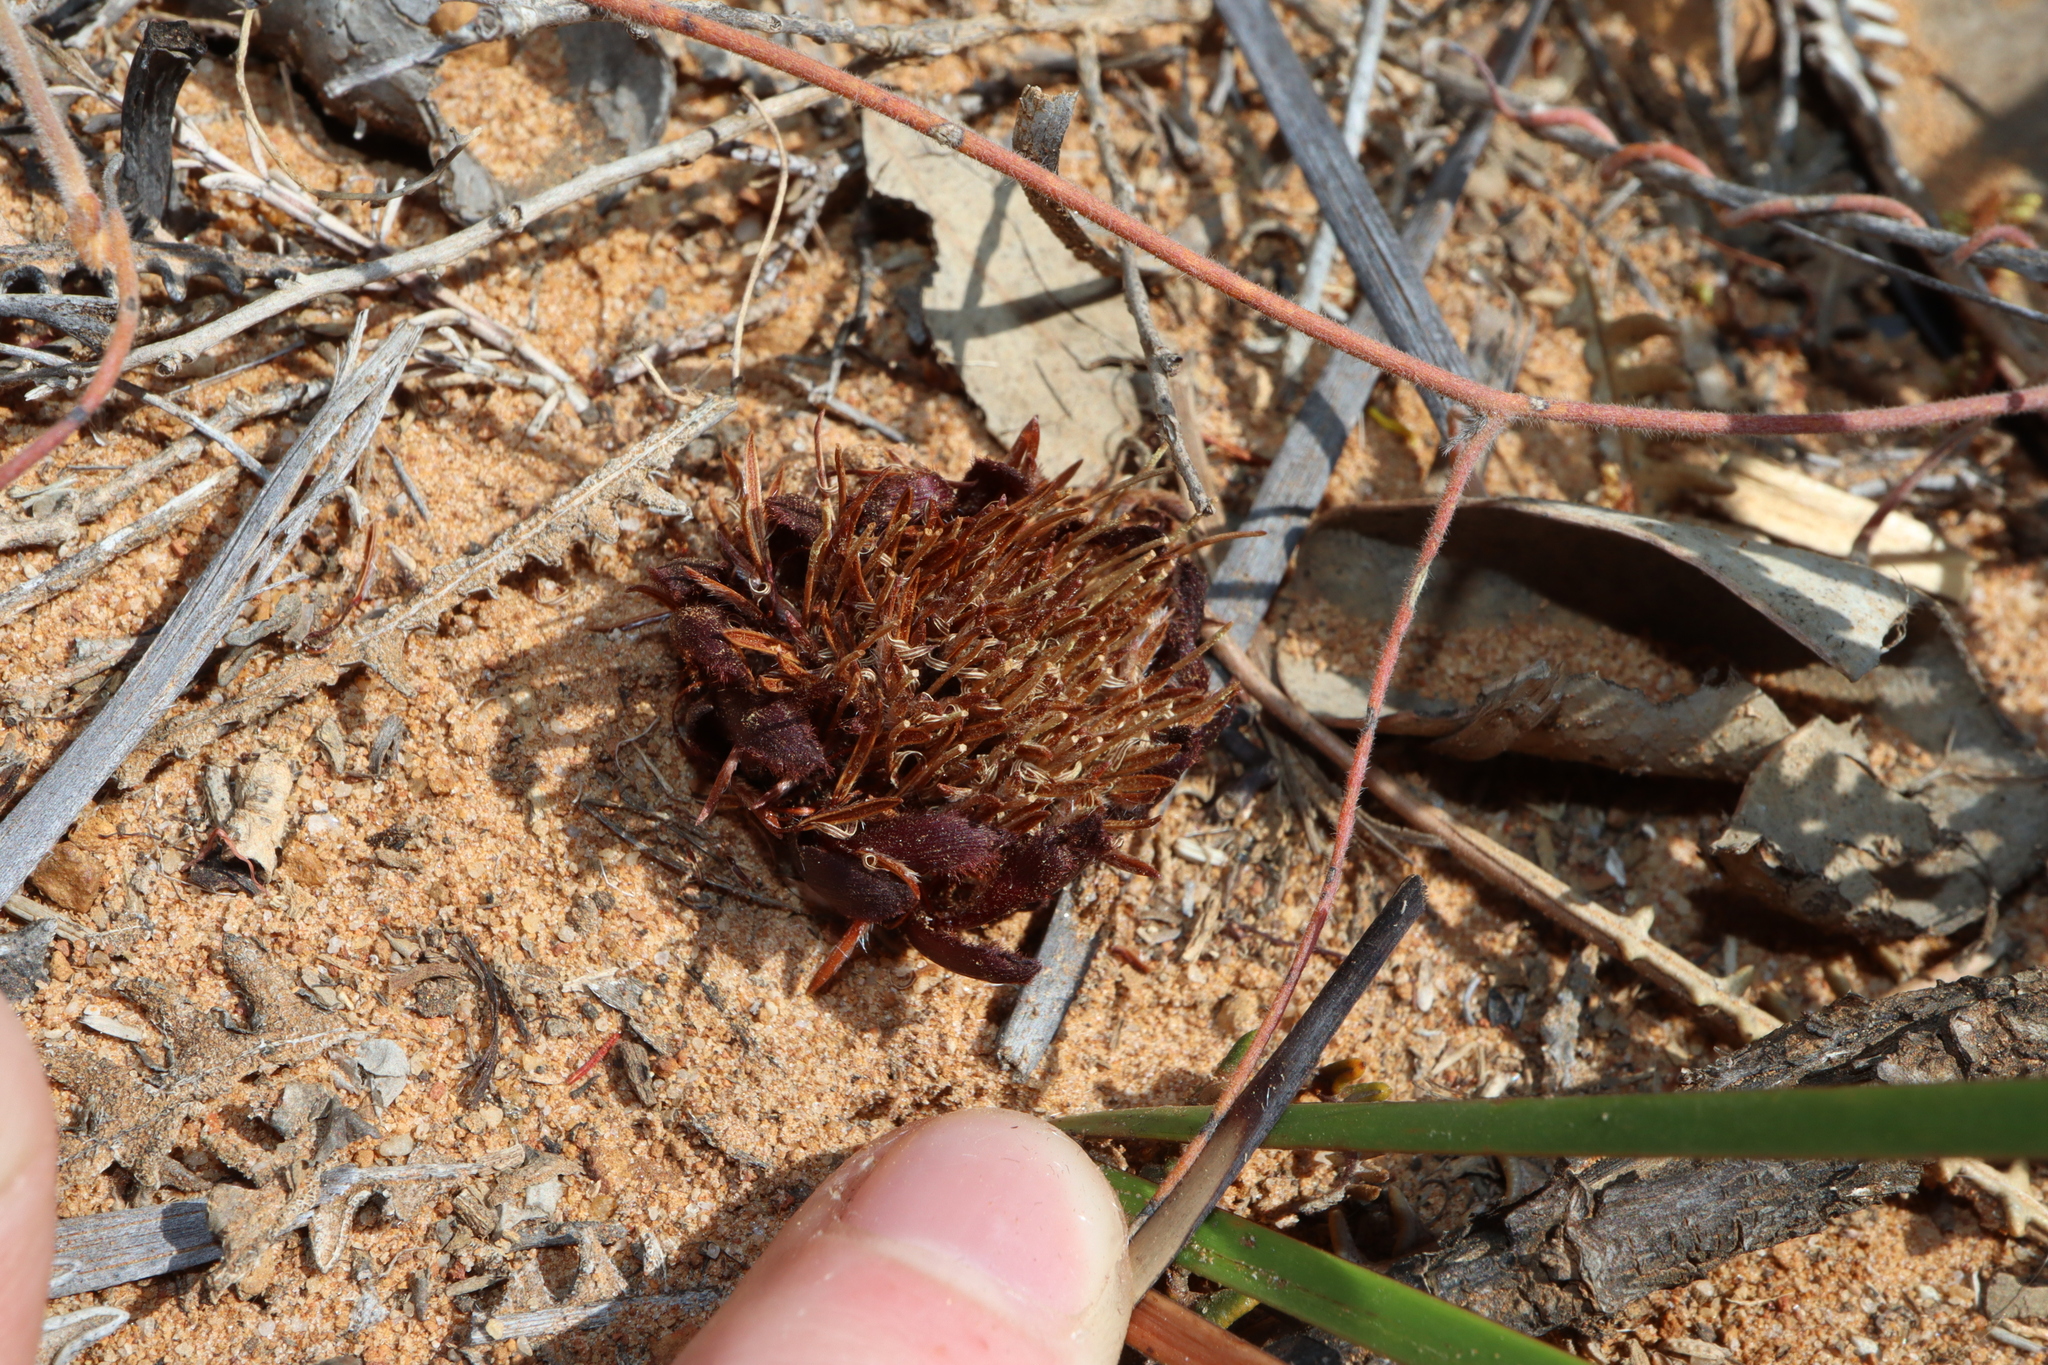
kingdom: Plantae
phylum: Tracheophyta
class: Magnoliopsida
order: Proteales
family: Proteaceae
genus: Banksia
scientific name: Banksia obtusa
